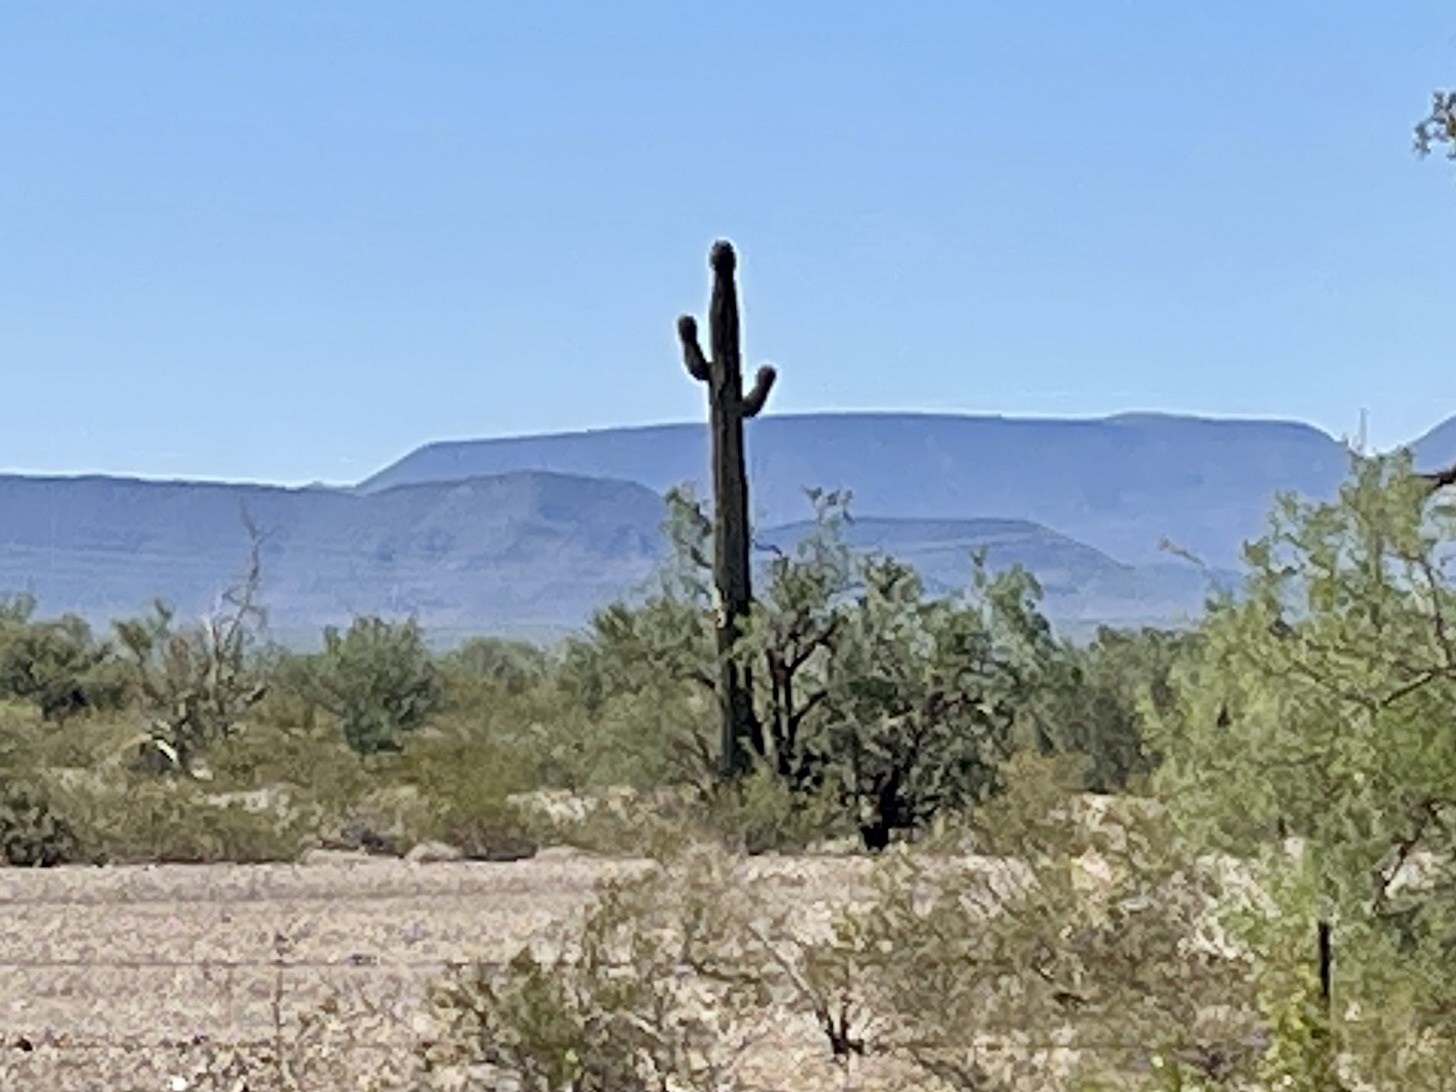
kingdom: Plantae
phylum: Tracheophyta
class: Magnoliopsida
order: Caryophyllales
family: Cactaceae
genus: Carnegiea
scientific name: Carnegiea gigantea
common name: Saguaro
